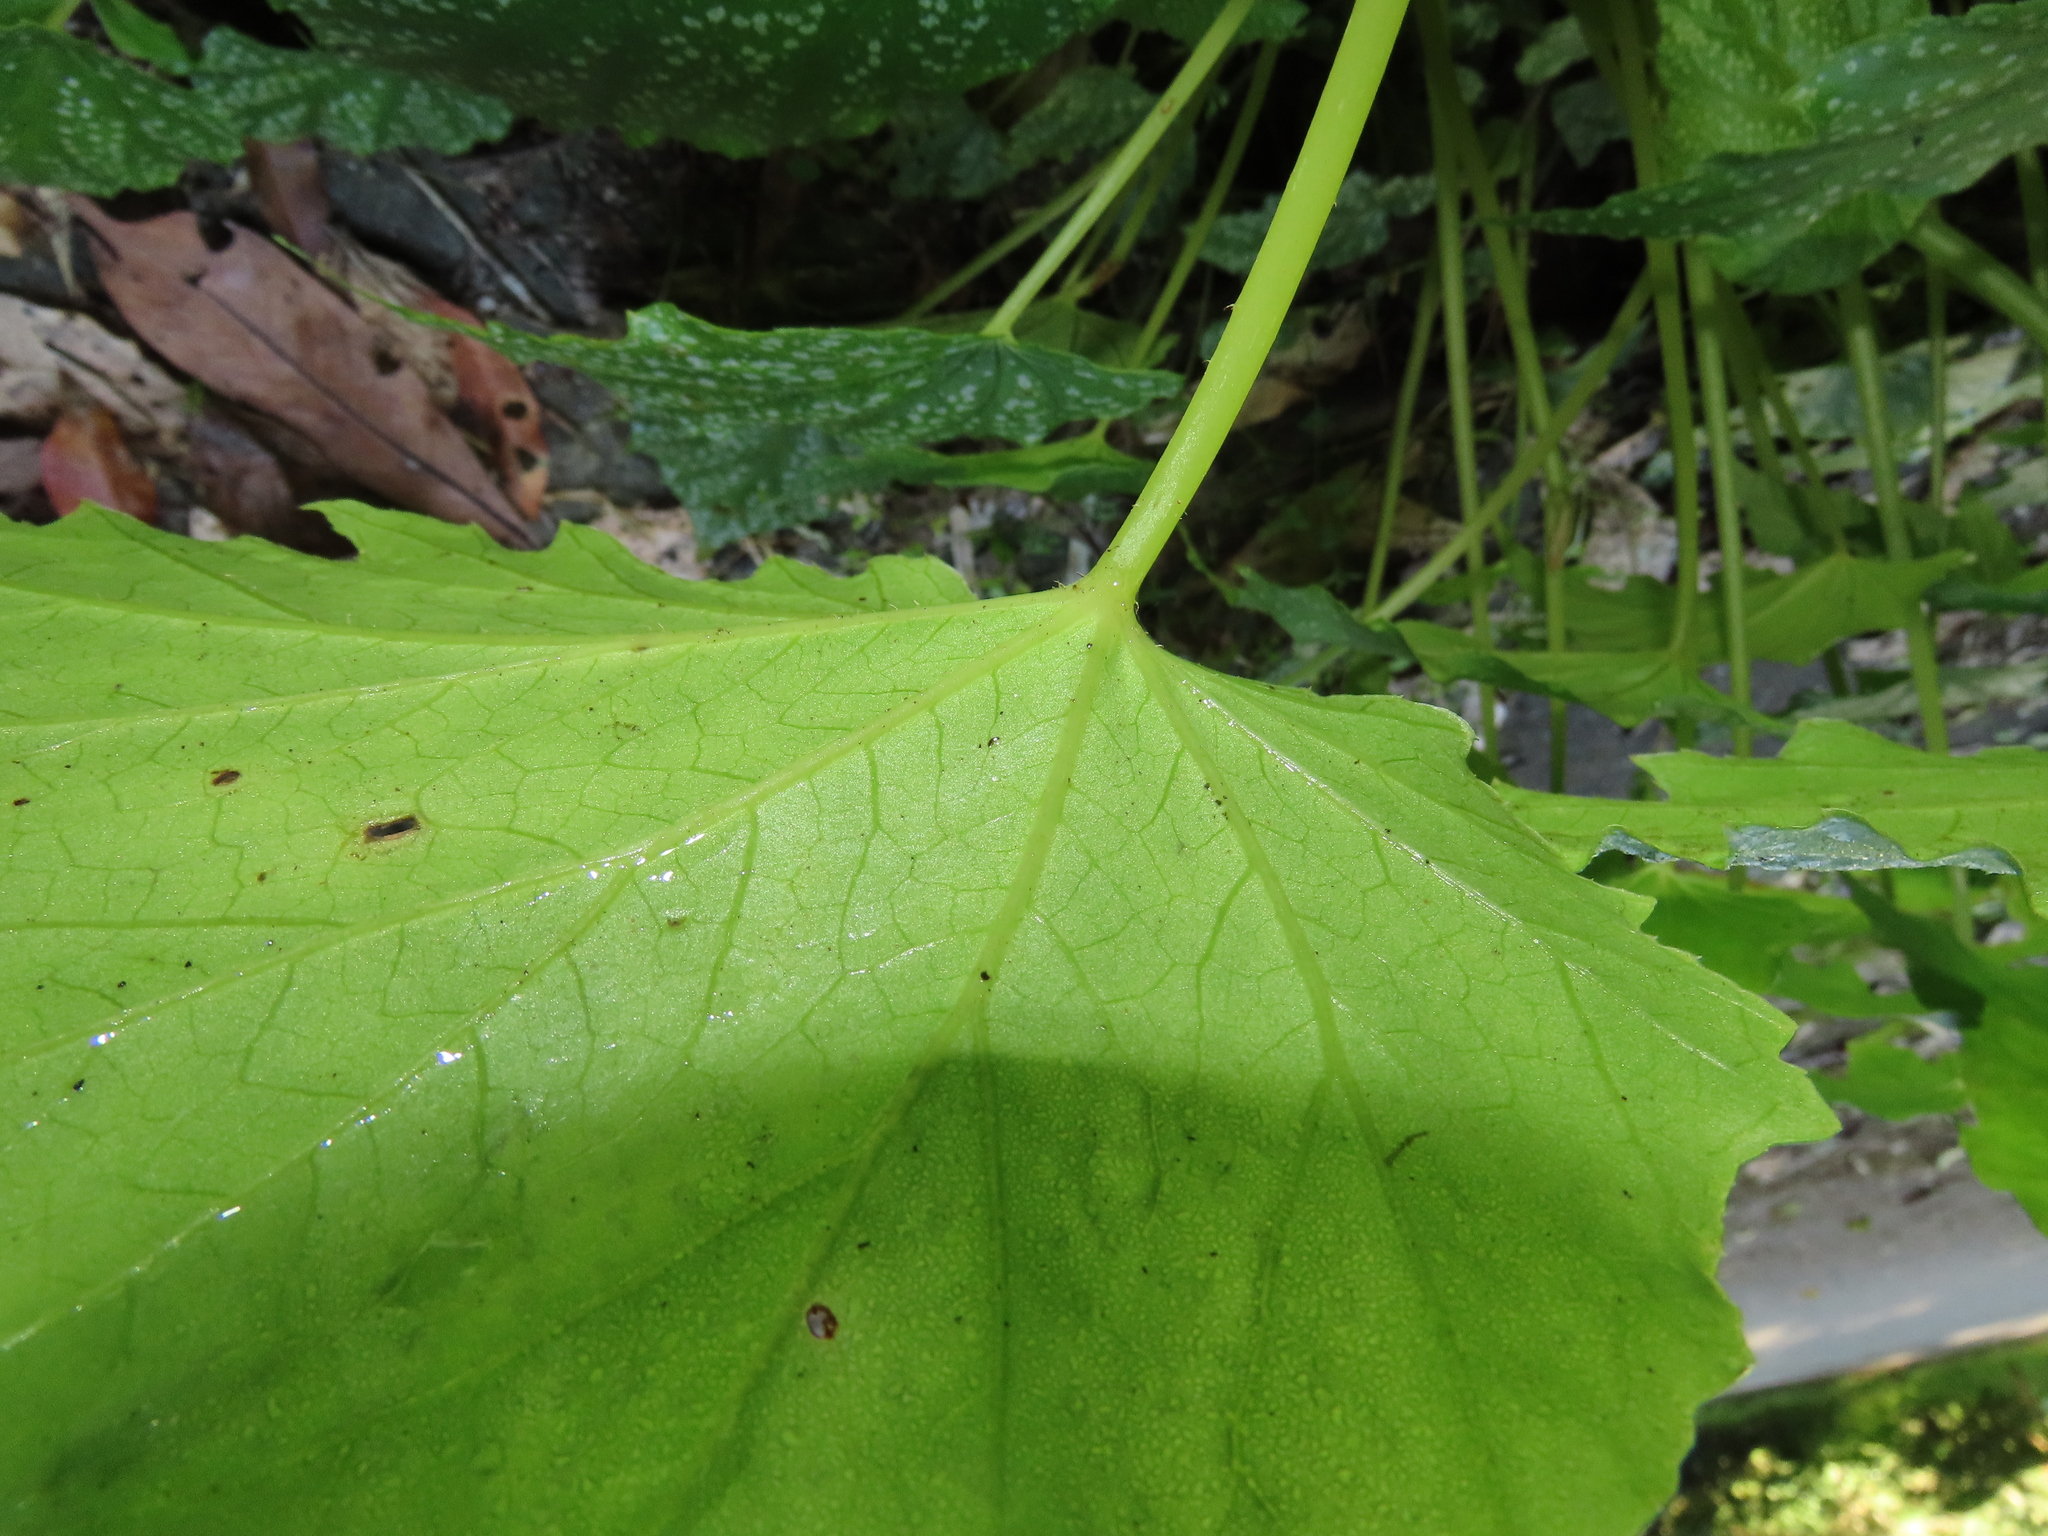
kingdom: Plantae
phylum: Tracheophyta
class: Magnoliopsida
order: Cucurbitales
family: Begoniaceae
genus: Begonia
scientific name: Begonia formosana
